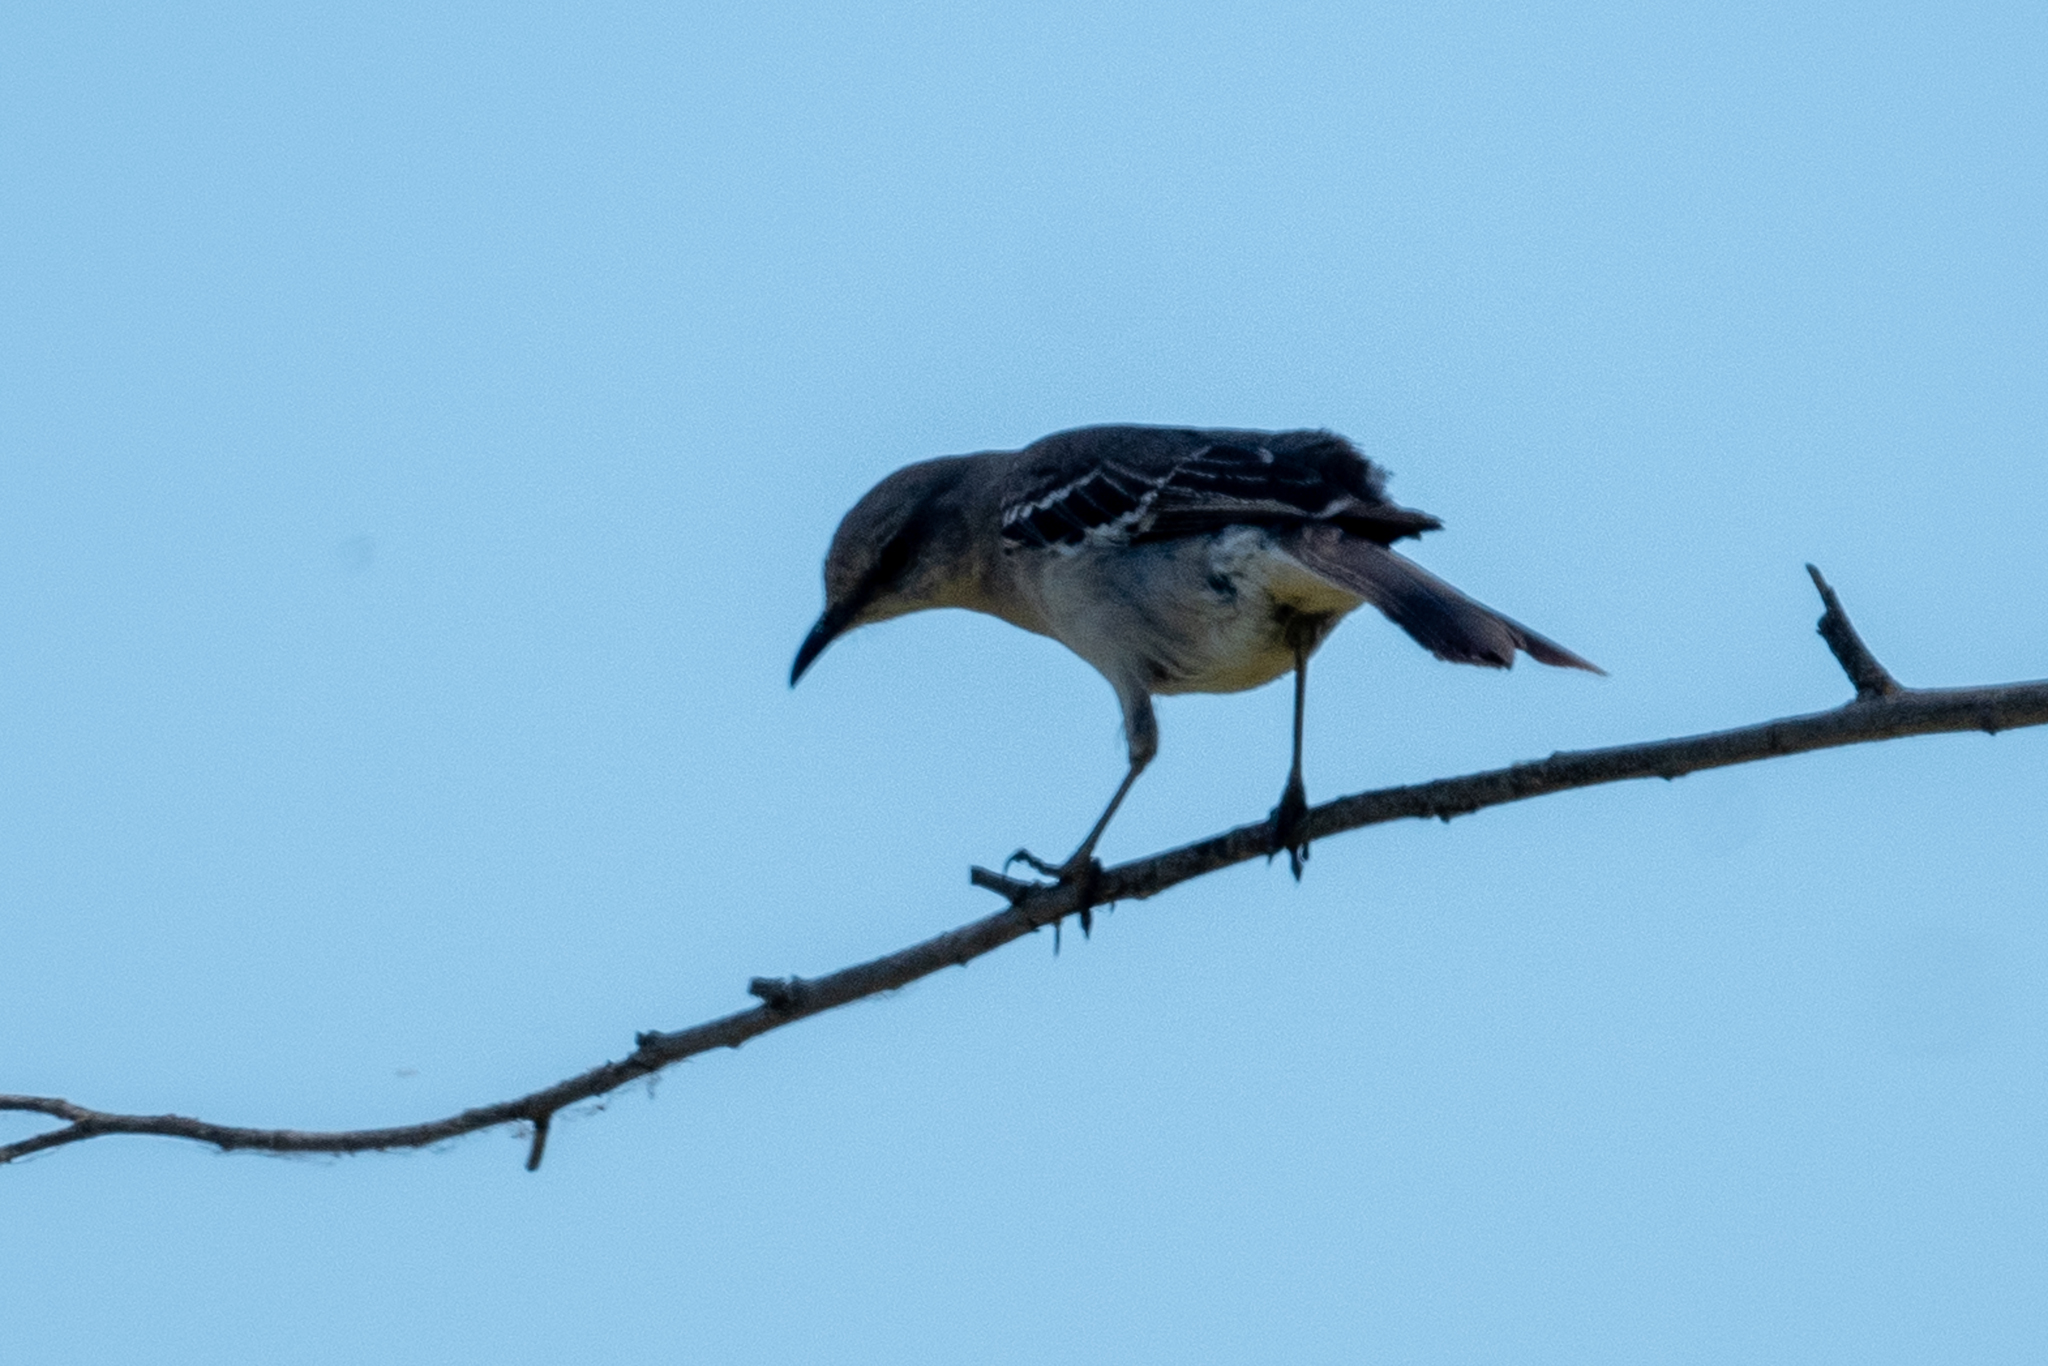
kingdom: Animalia
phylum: Chordata
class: Aves
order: Passeriformes
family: Mimidae
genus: Mimus
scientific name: Mimus polyglottos
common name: Northern mockingbird
